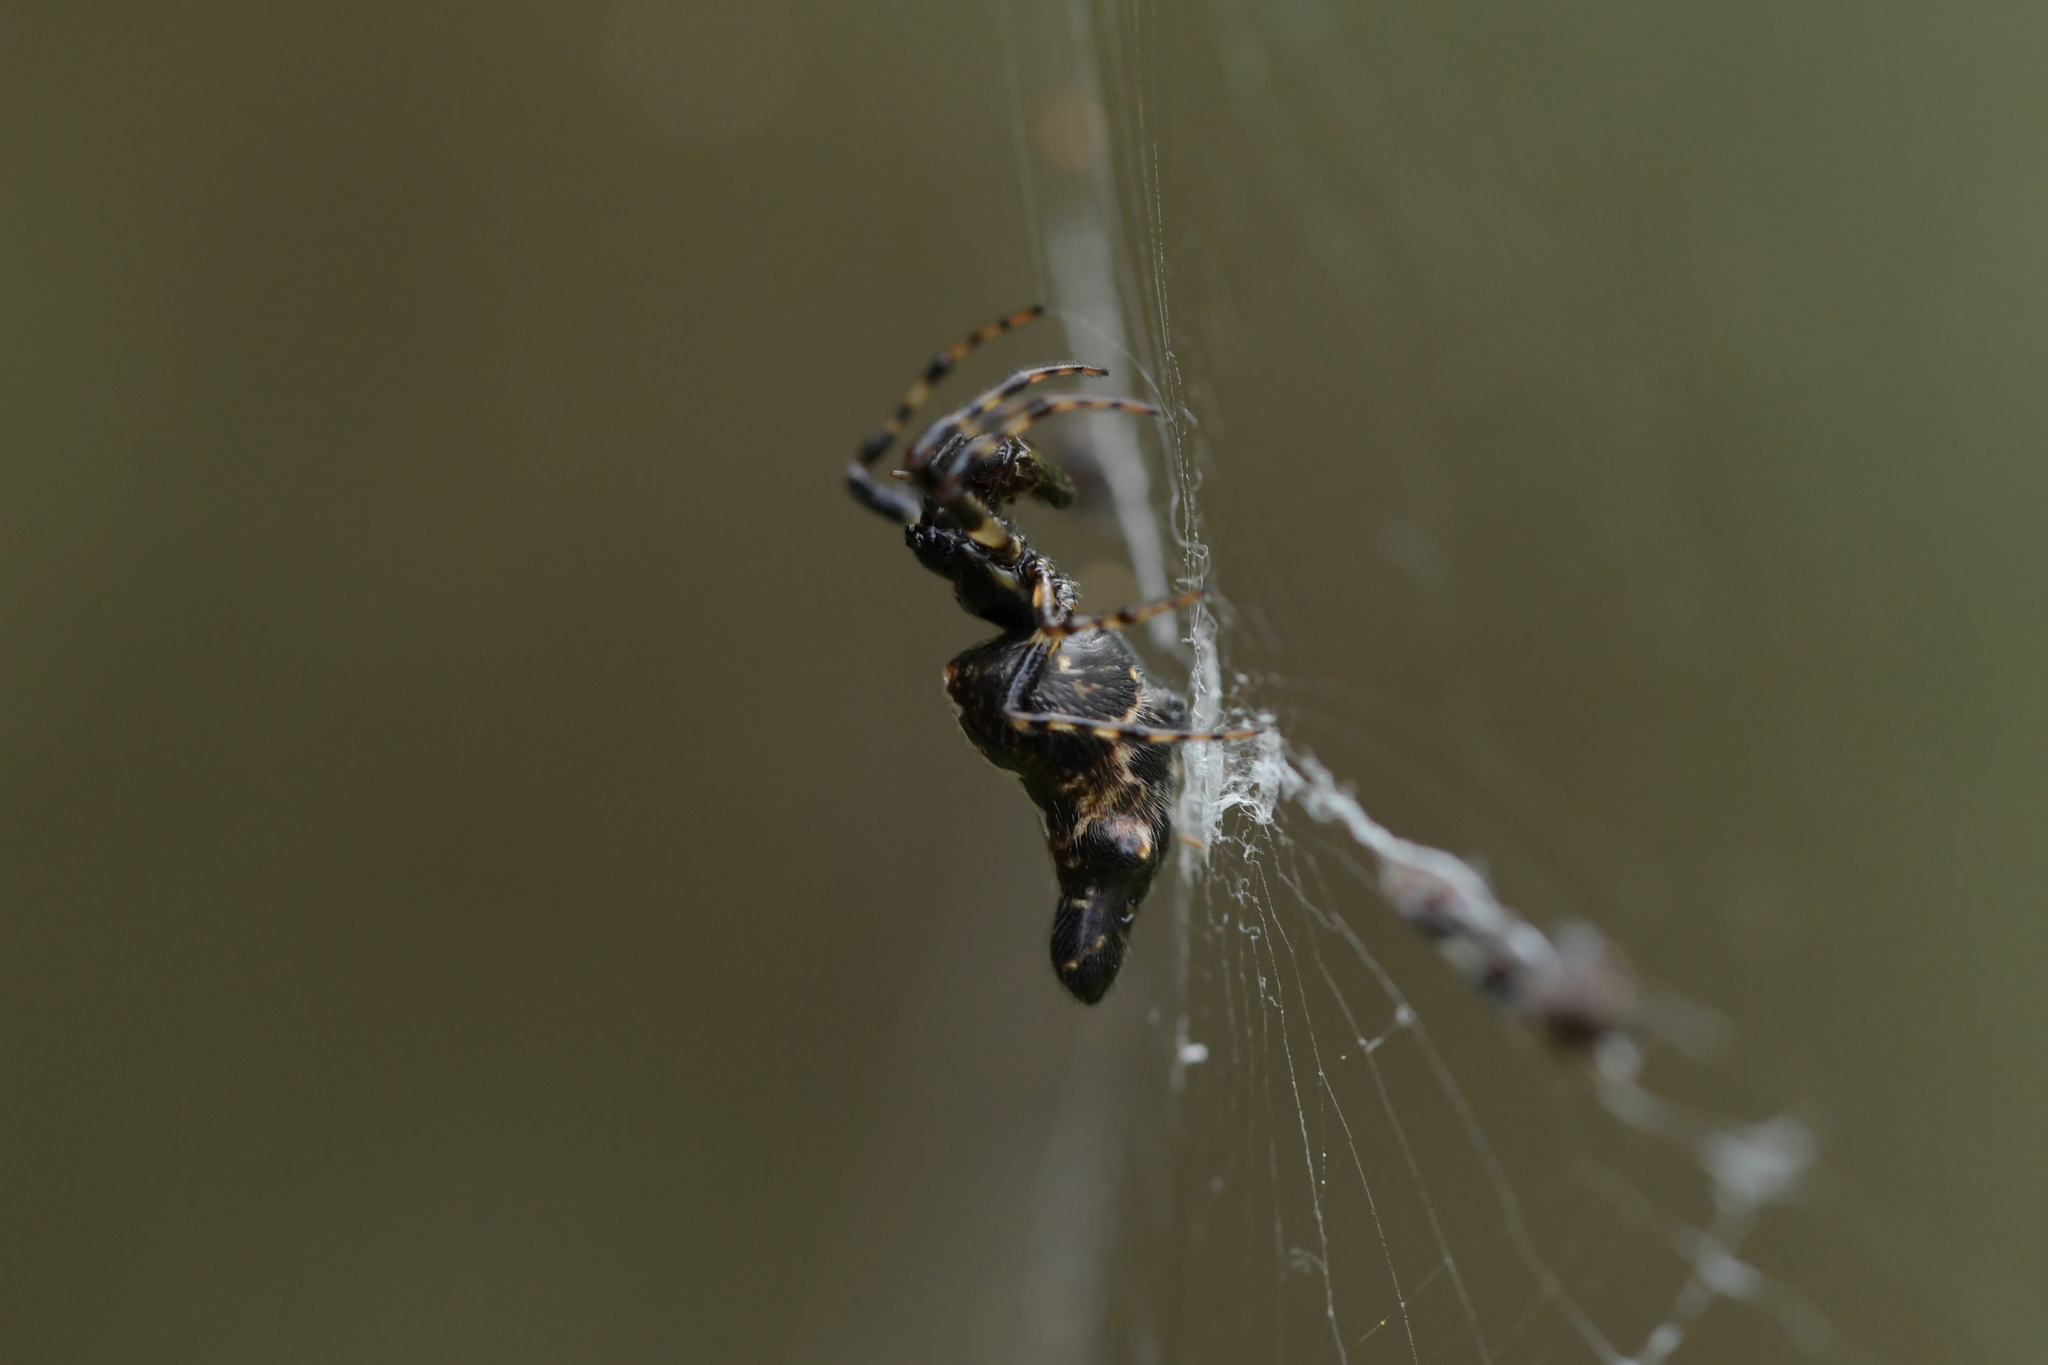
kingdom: Animalia
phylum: Arthropoda
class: Arachnida
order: Araneae
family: Araneidae
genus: Cyclosa
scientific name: Cyclosa trilobata
